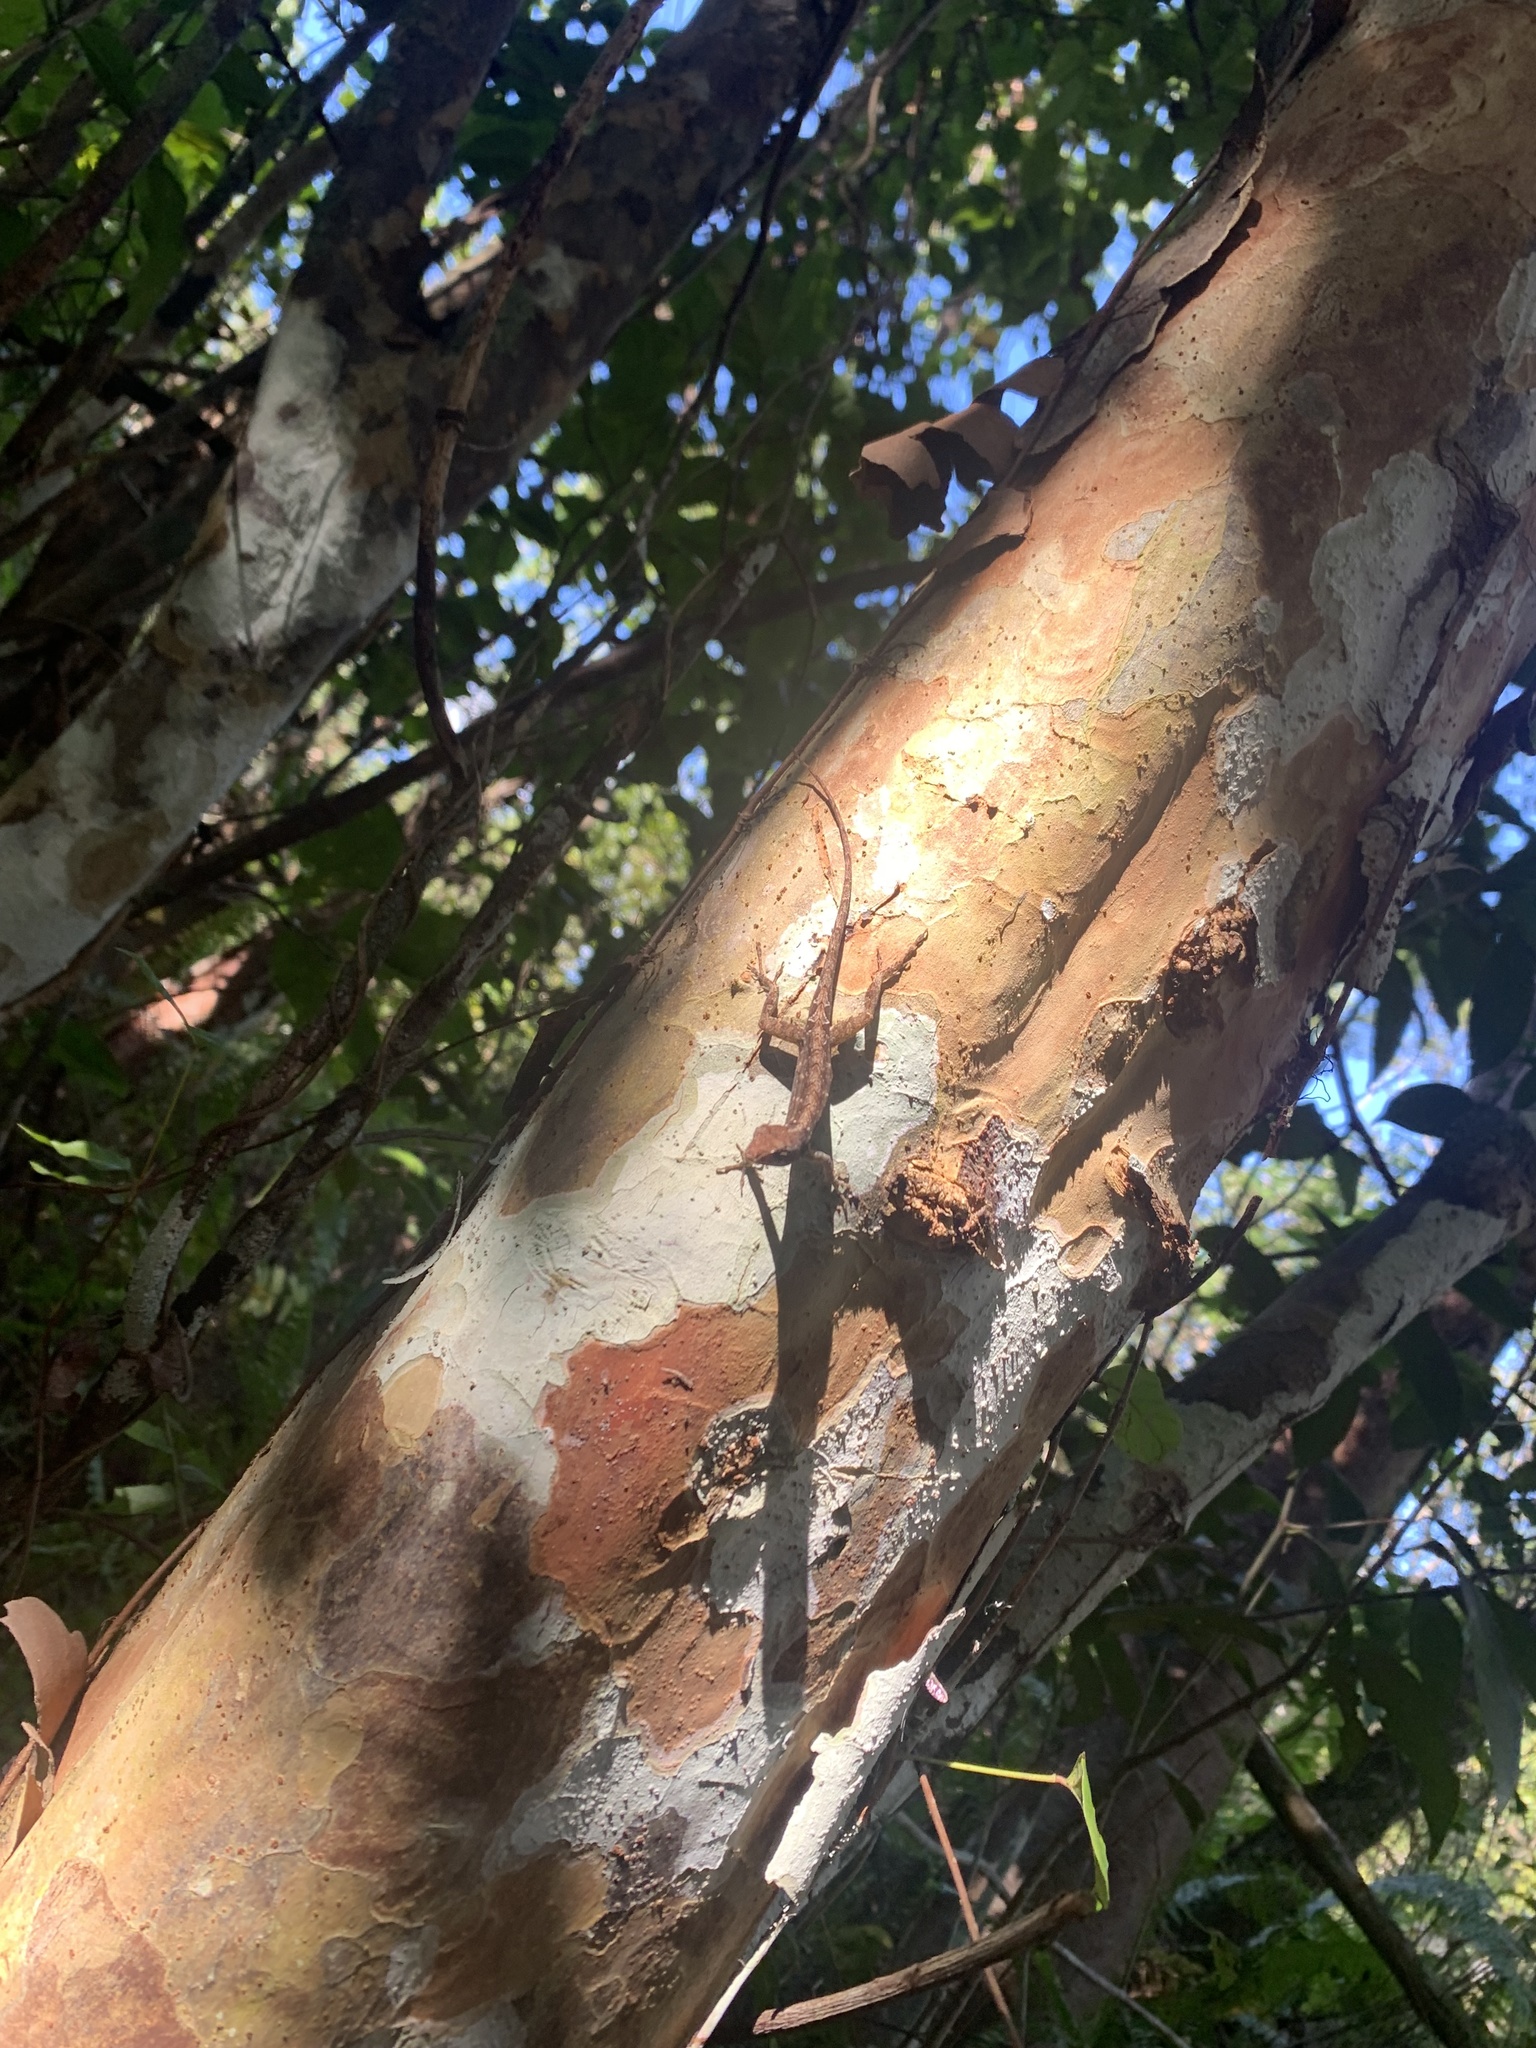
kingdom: Animalia
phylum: Chordata
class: Squamata
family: Dactyloidae
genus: Anolis
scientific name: Anolis sagrei
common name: Brown anole
